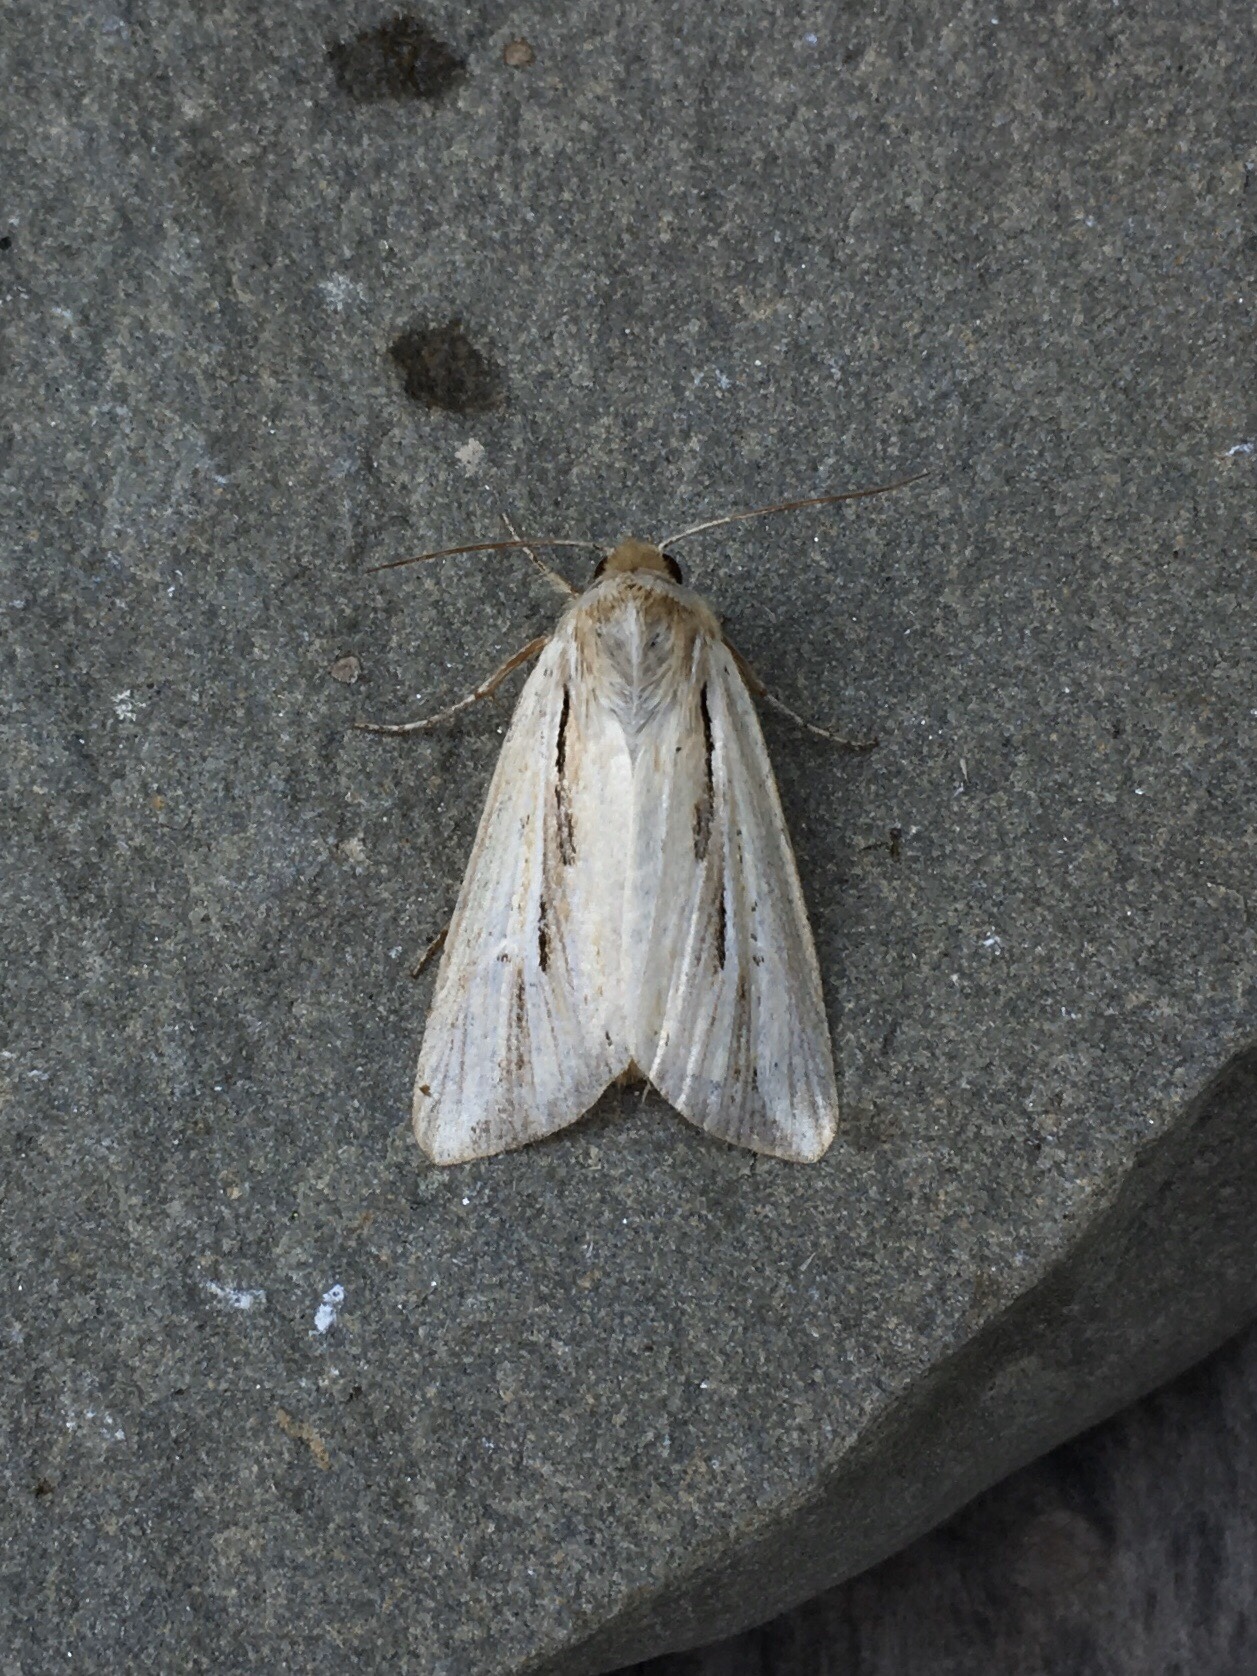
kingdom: Animalia
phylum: Arthropoda
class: Insecta
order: Lepidoptera
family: Noctuidae
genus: Dargida
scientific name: Dargida diffusa
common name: Wheat head armyworm
